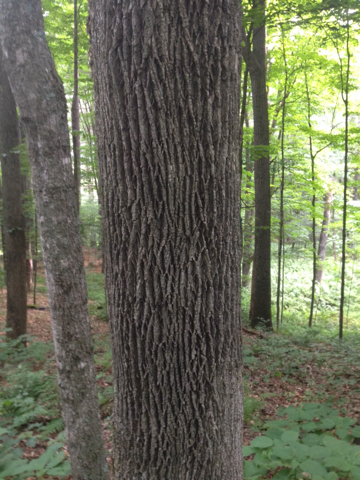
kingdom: Plantae
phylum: Tracheophyta
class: Magnoliopsida
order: Lamiales
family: Oleaceae
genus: Fraxinus
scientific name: Fraxinus americana
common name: White ash
